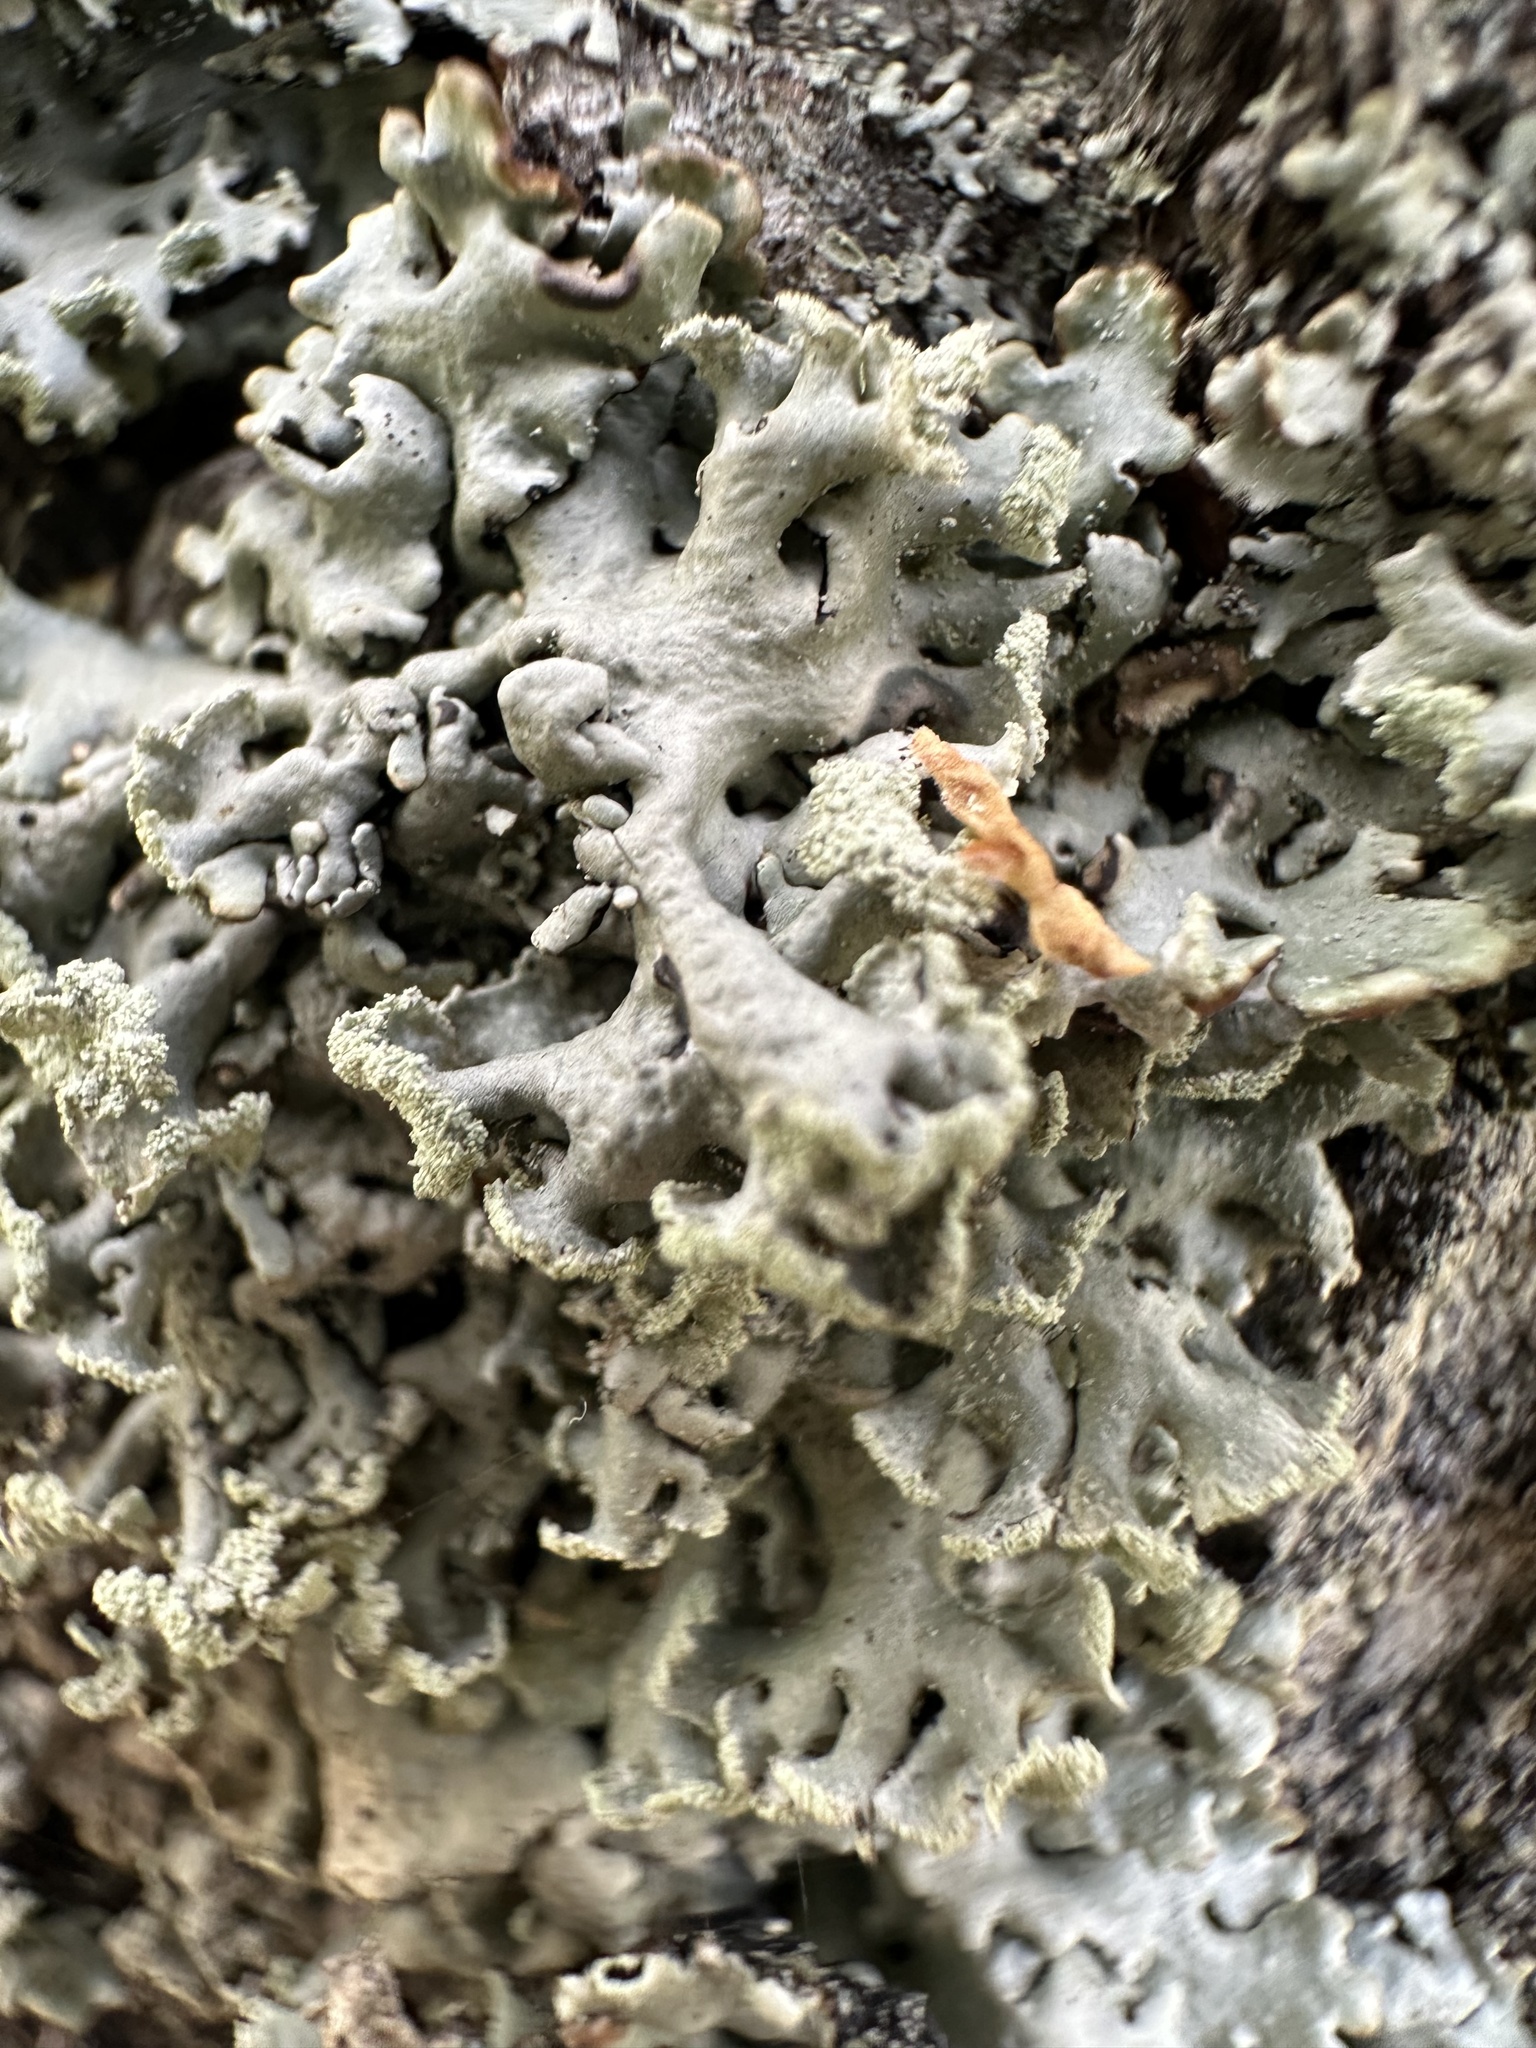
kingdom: Fungi
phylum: Ascomycota
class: Lecanoromycetes
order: Lecanorales
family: Parmeliaceae
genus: Hypogymnia
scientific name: Hypogymnia physodes
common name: Dark crottle
